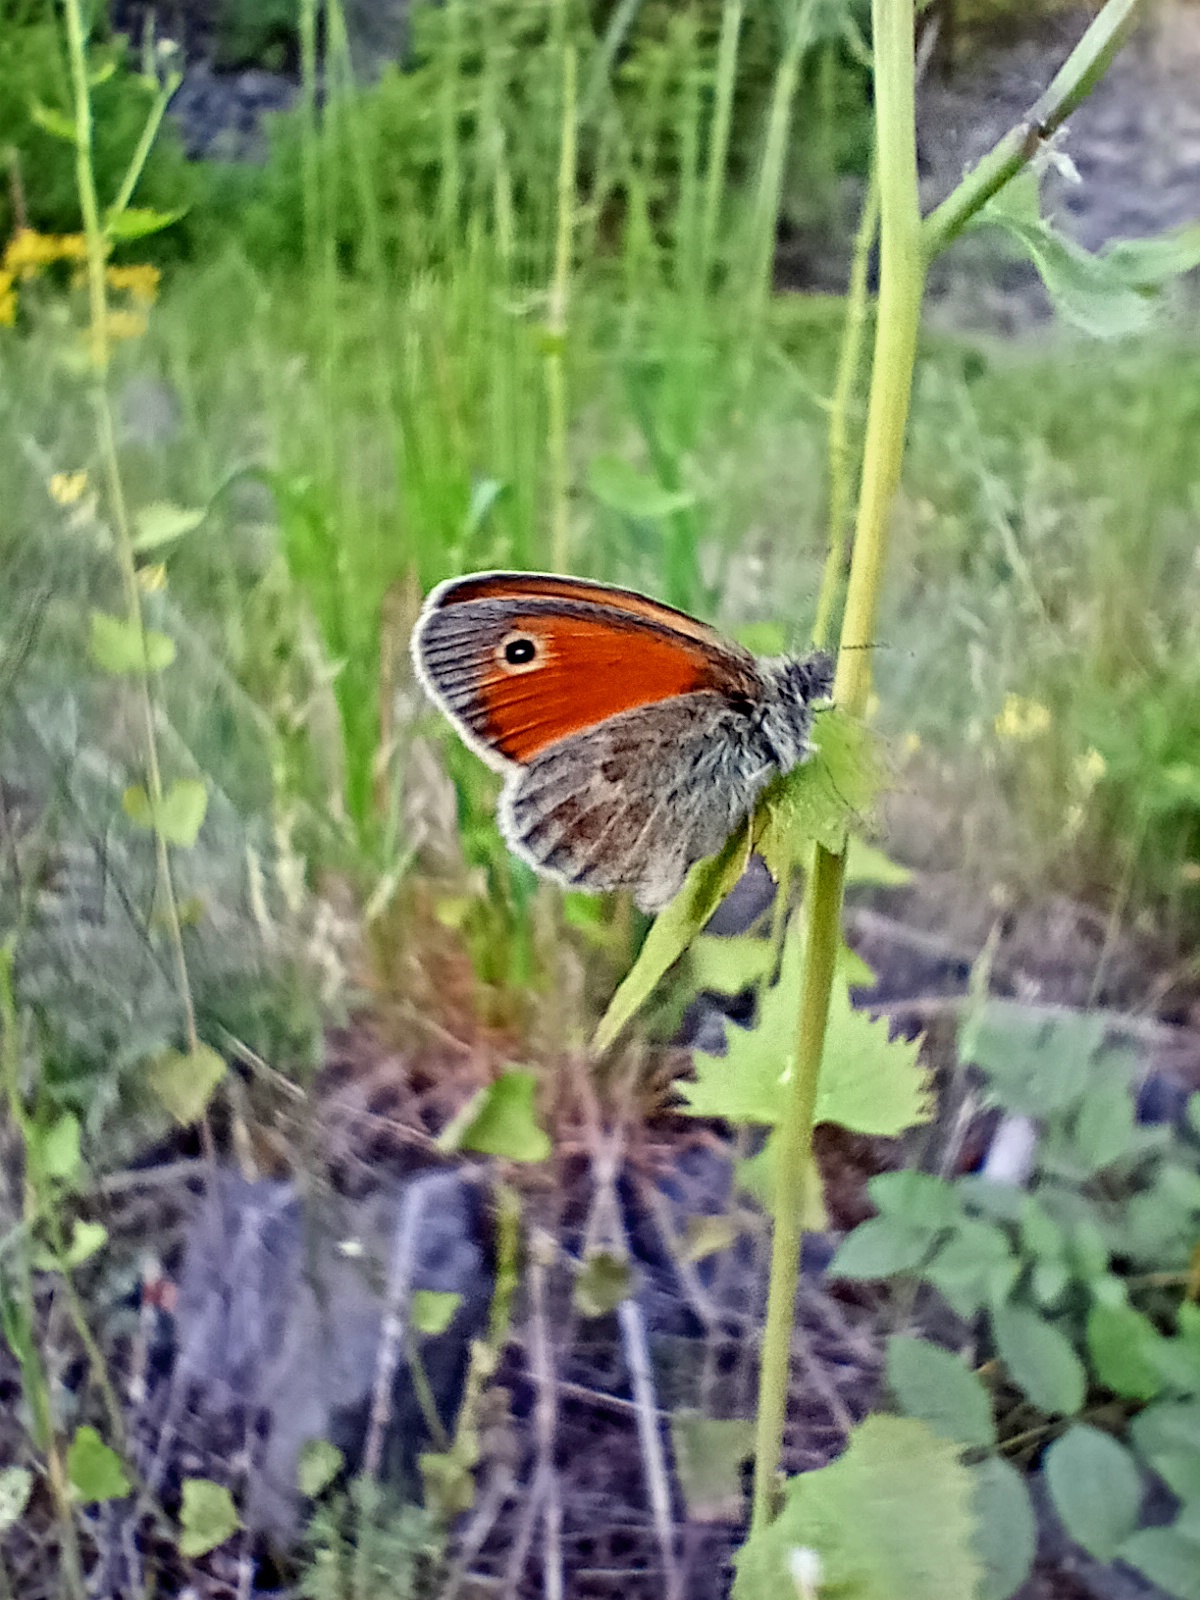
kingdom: Animalia
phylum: Arthropoda
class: Insecta
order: Lepidoptera
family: Nymphalidae
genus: Coenonympha
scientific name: Coenonympha pamphilus
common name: Small heath
